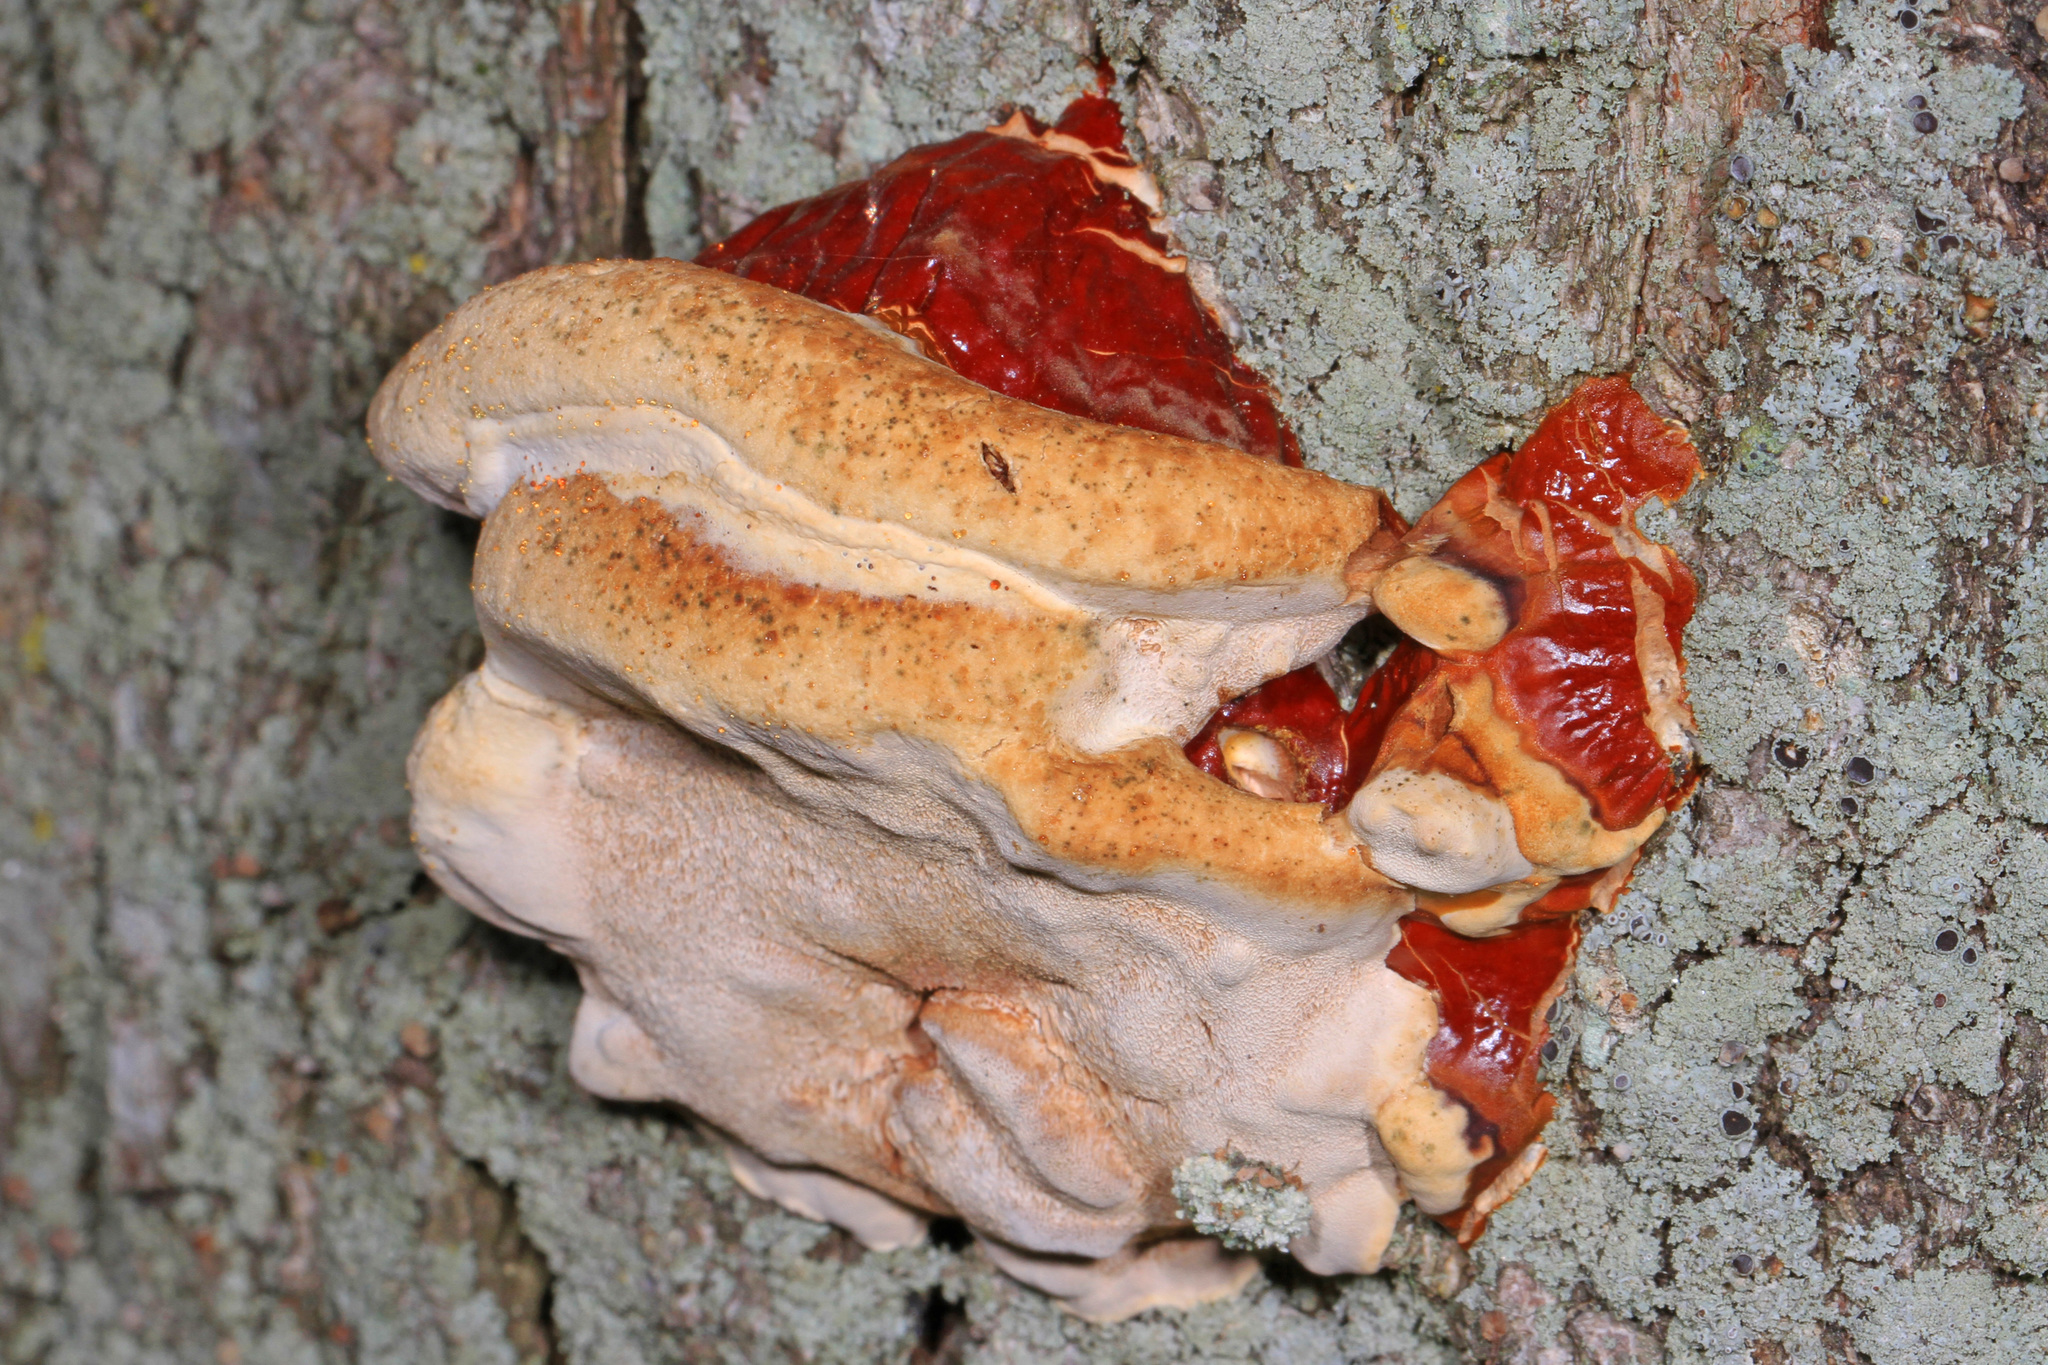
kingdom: Fungi
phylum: Basidiomycota
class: Agaricomycetes
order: Polyporales
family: Polyporaceae
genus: Ganoderma
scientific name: Ganoderma resinaceum
